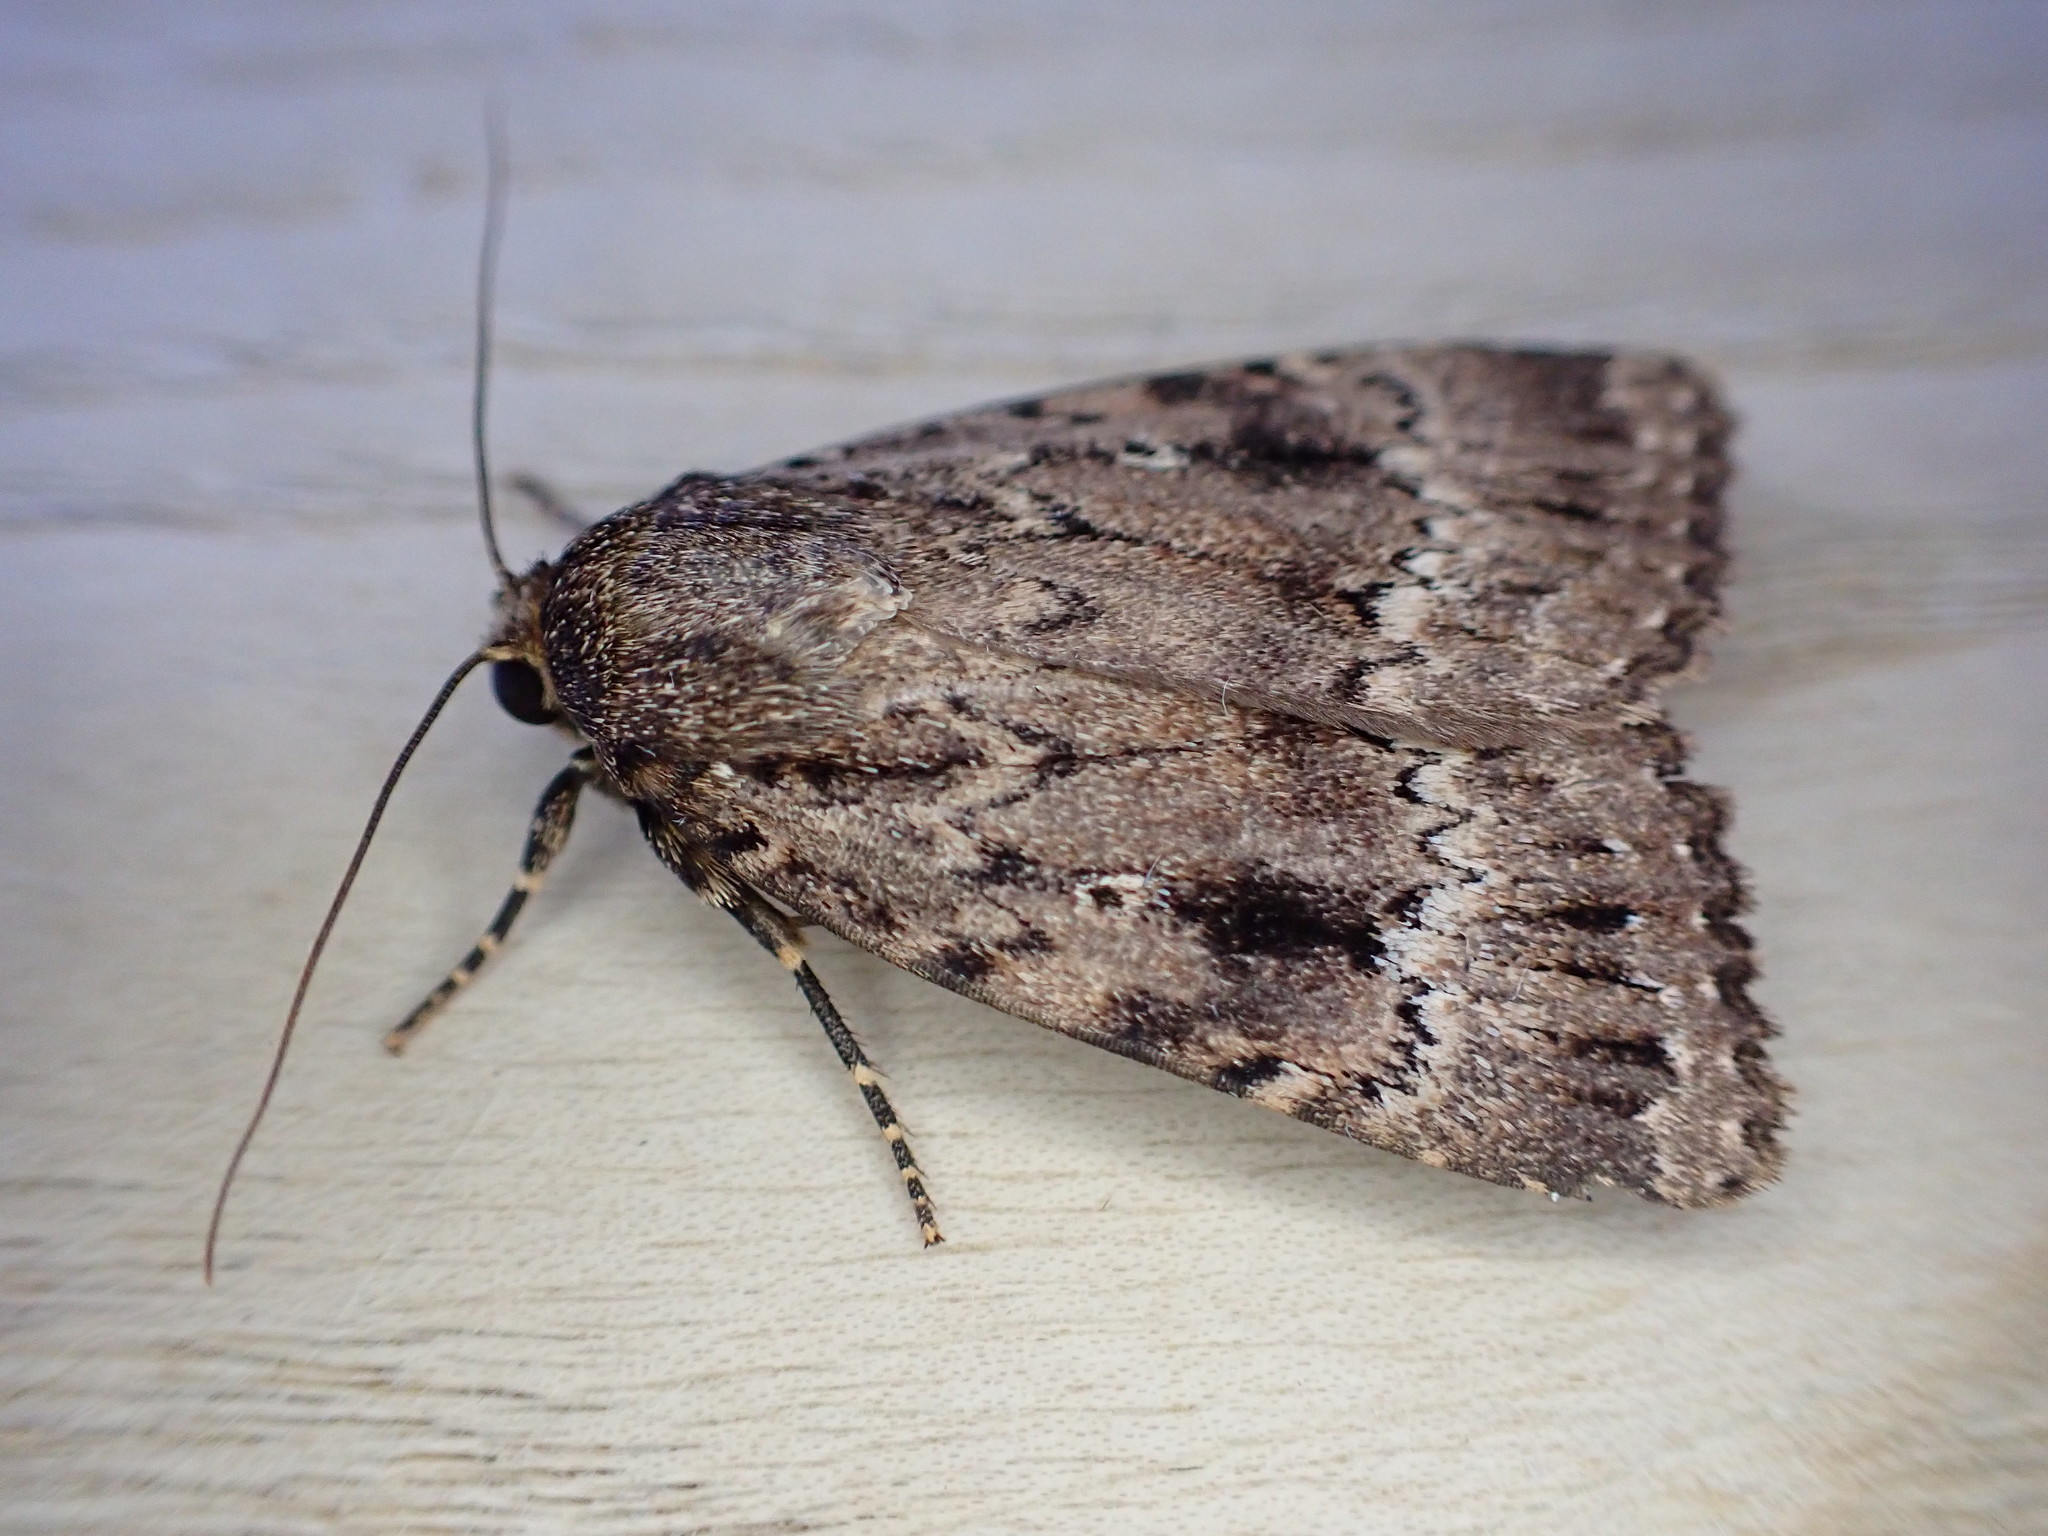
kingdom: Animalia
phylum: Arthropoda
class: Insecta
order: Lepidoptera
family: Noctuidae
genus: Amphipyra
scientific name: Amphipyra pyramidea
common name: Copper underwing
